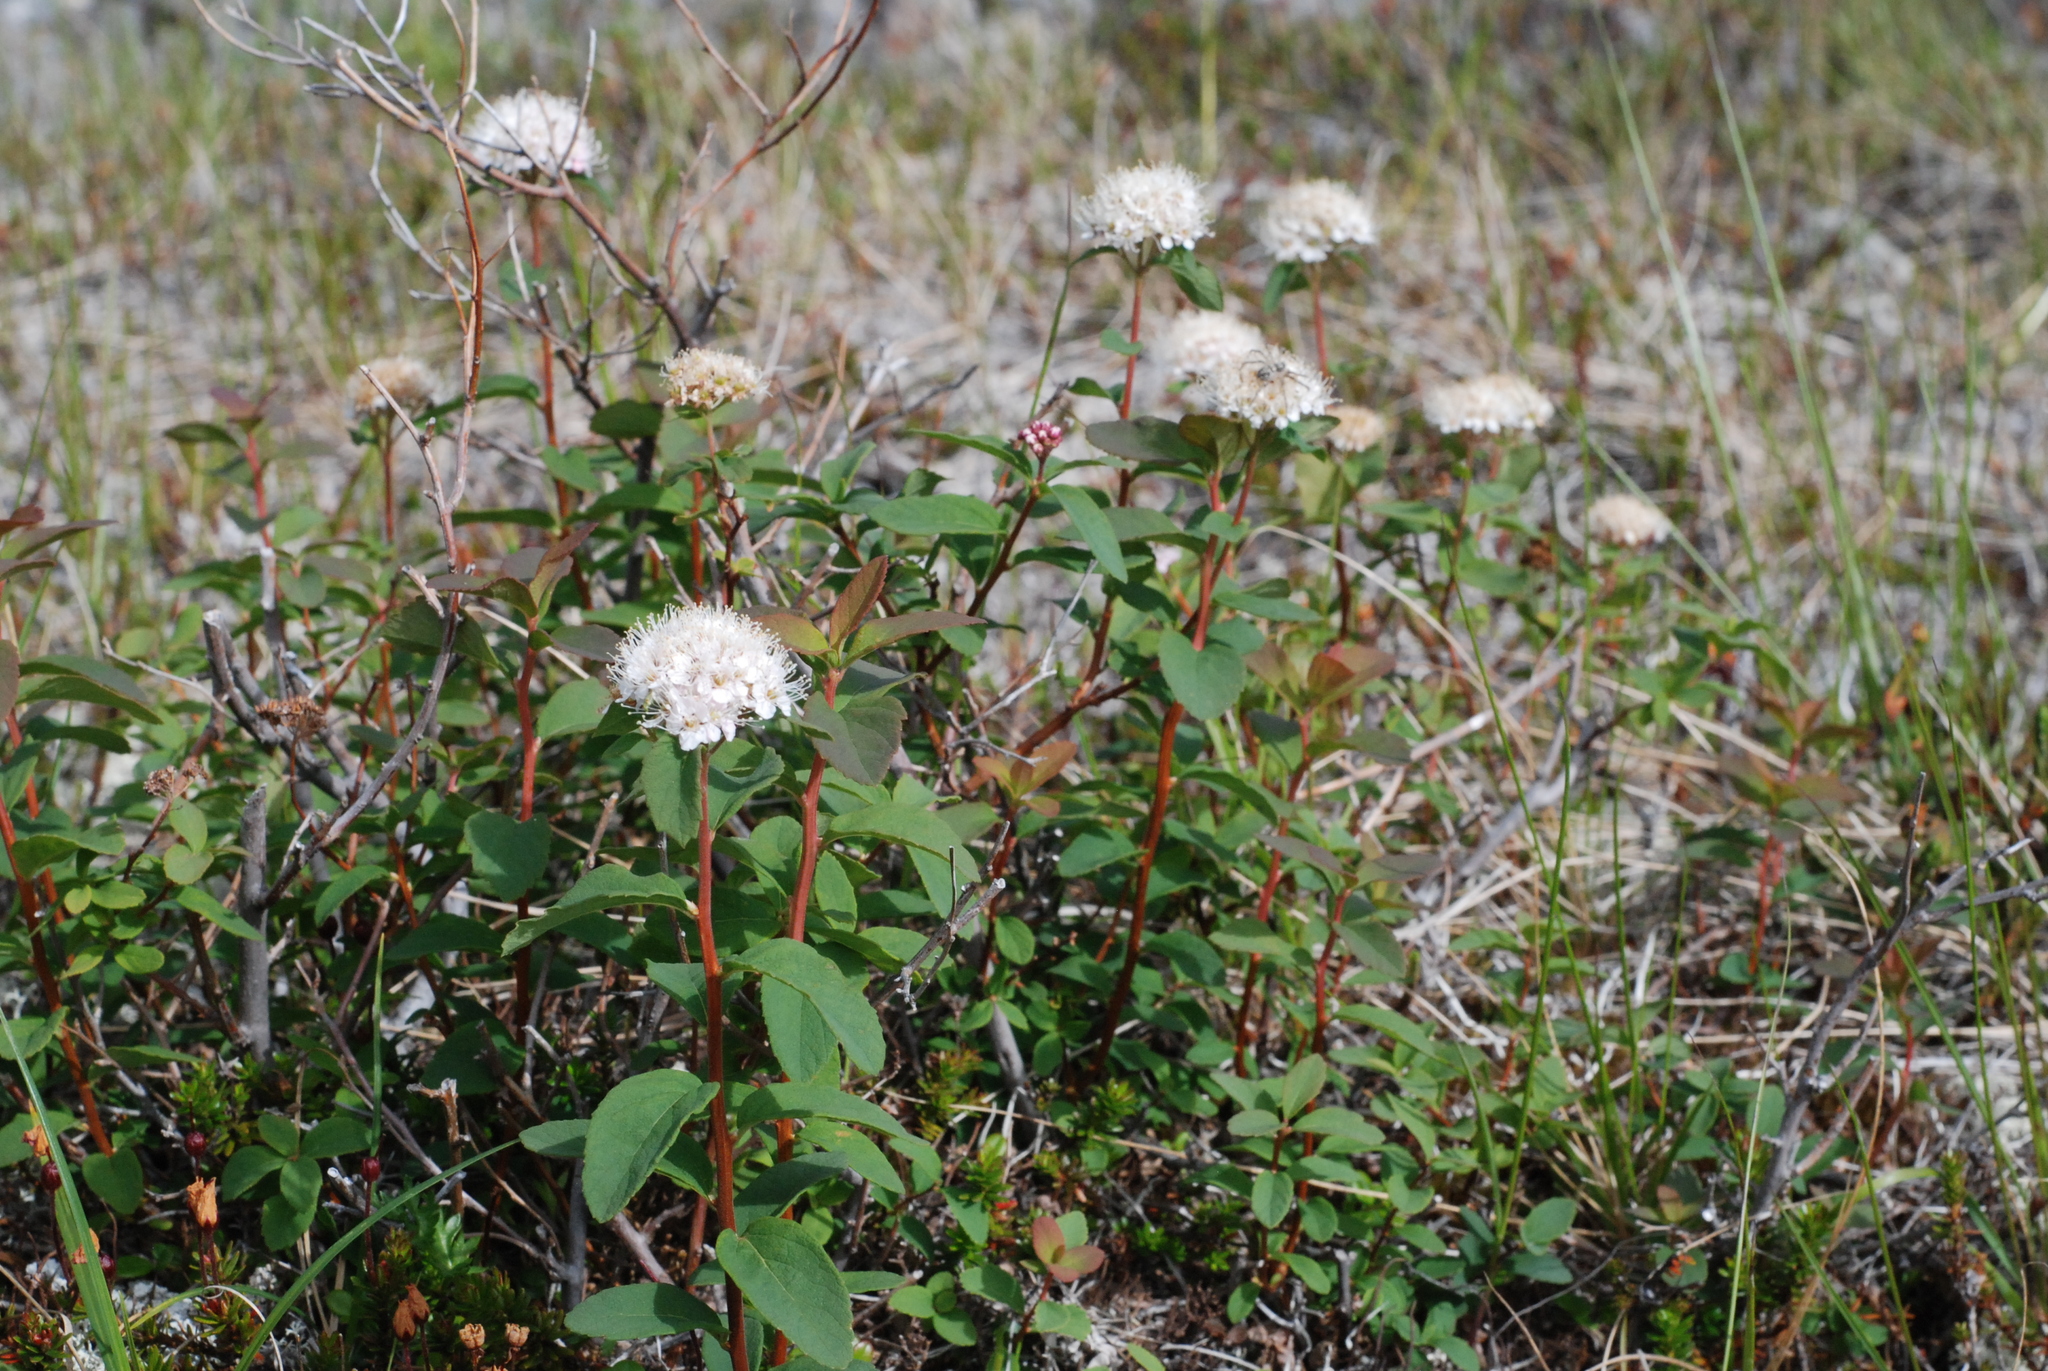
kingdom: Plantae
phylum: Tracheophyta
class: Magnoliopsida
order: Rosales
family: Rosaceae
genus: Spiraea
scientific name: Spiraea stevenii
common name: Steven's meadowsweet
